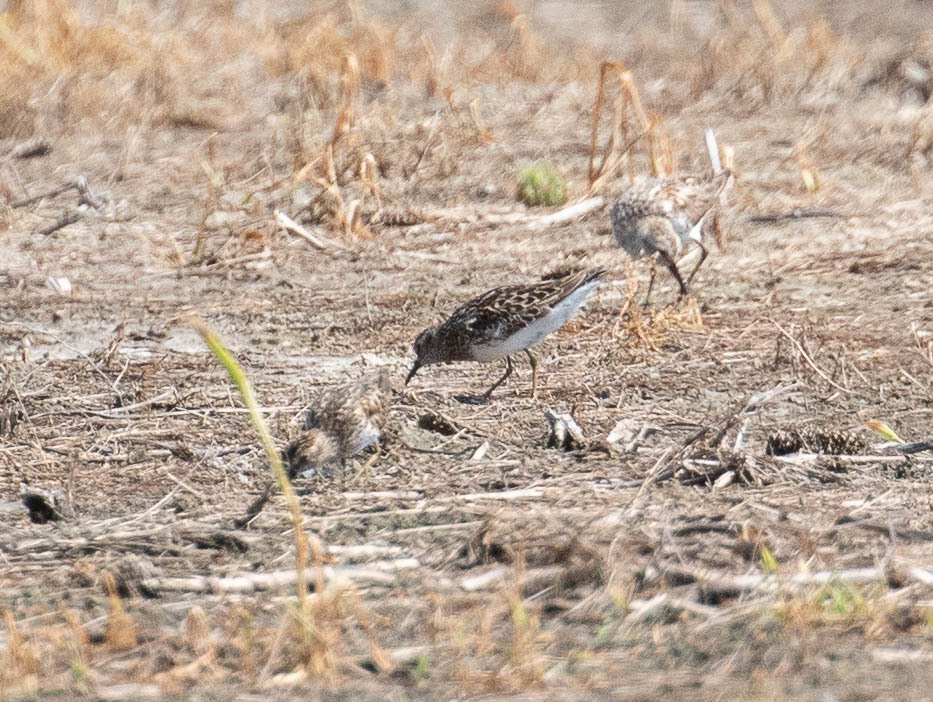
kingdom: Animalia
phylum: Chordata
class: Aves
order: Charadriiformes
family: Scolopacidae
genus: Calidris
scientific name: Calidris minutilla
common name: Least sandpiper
